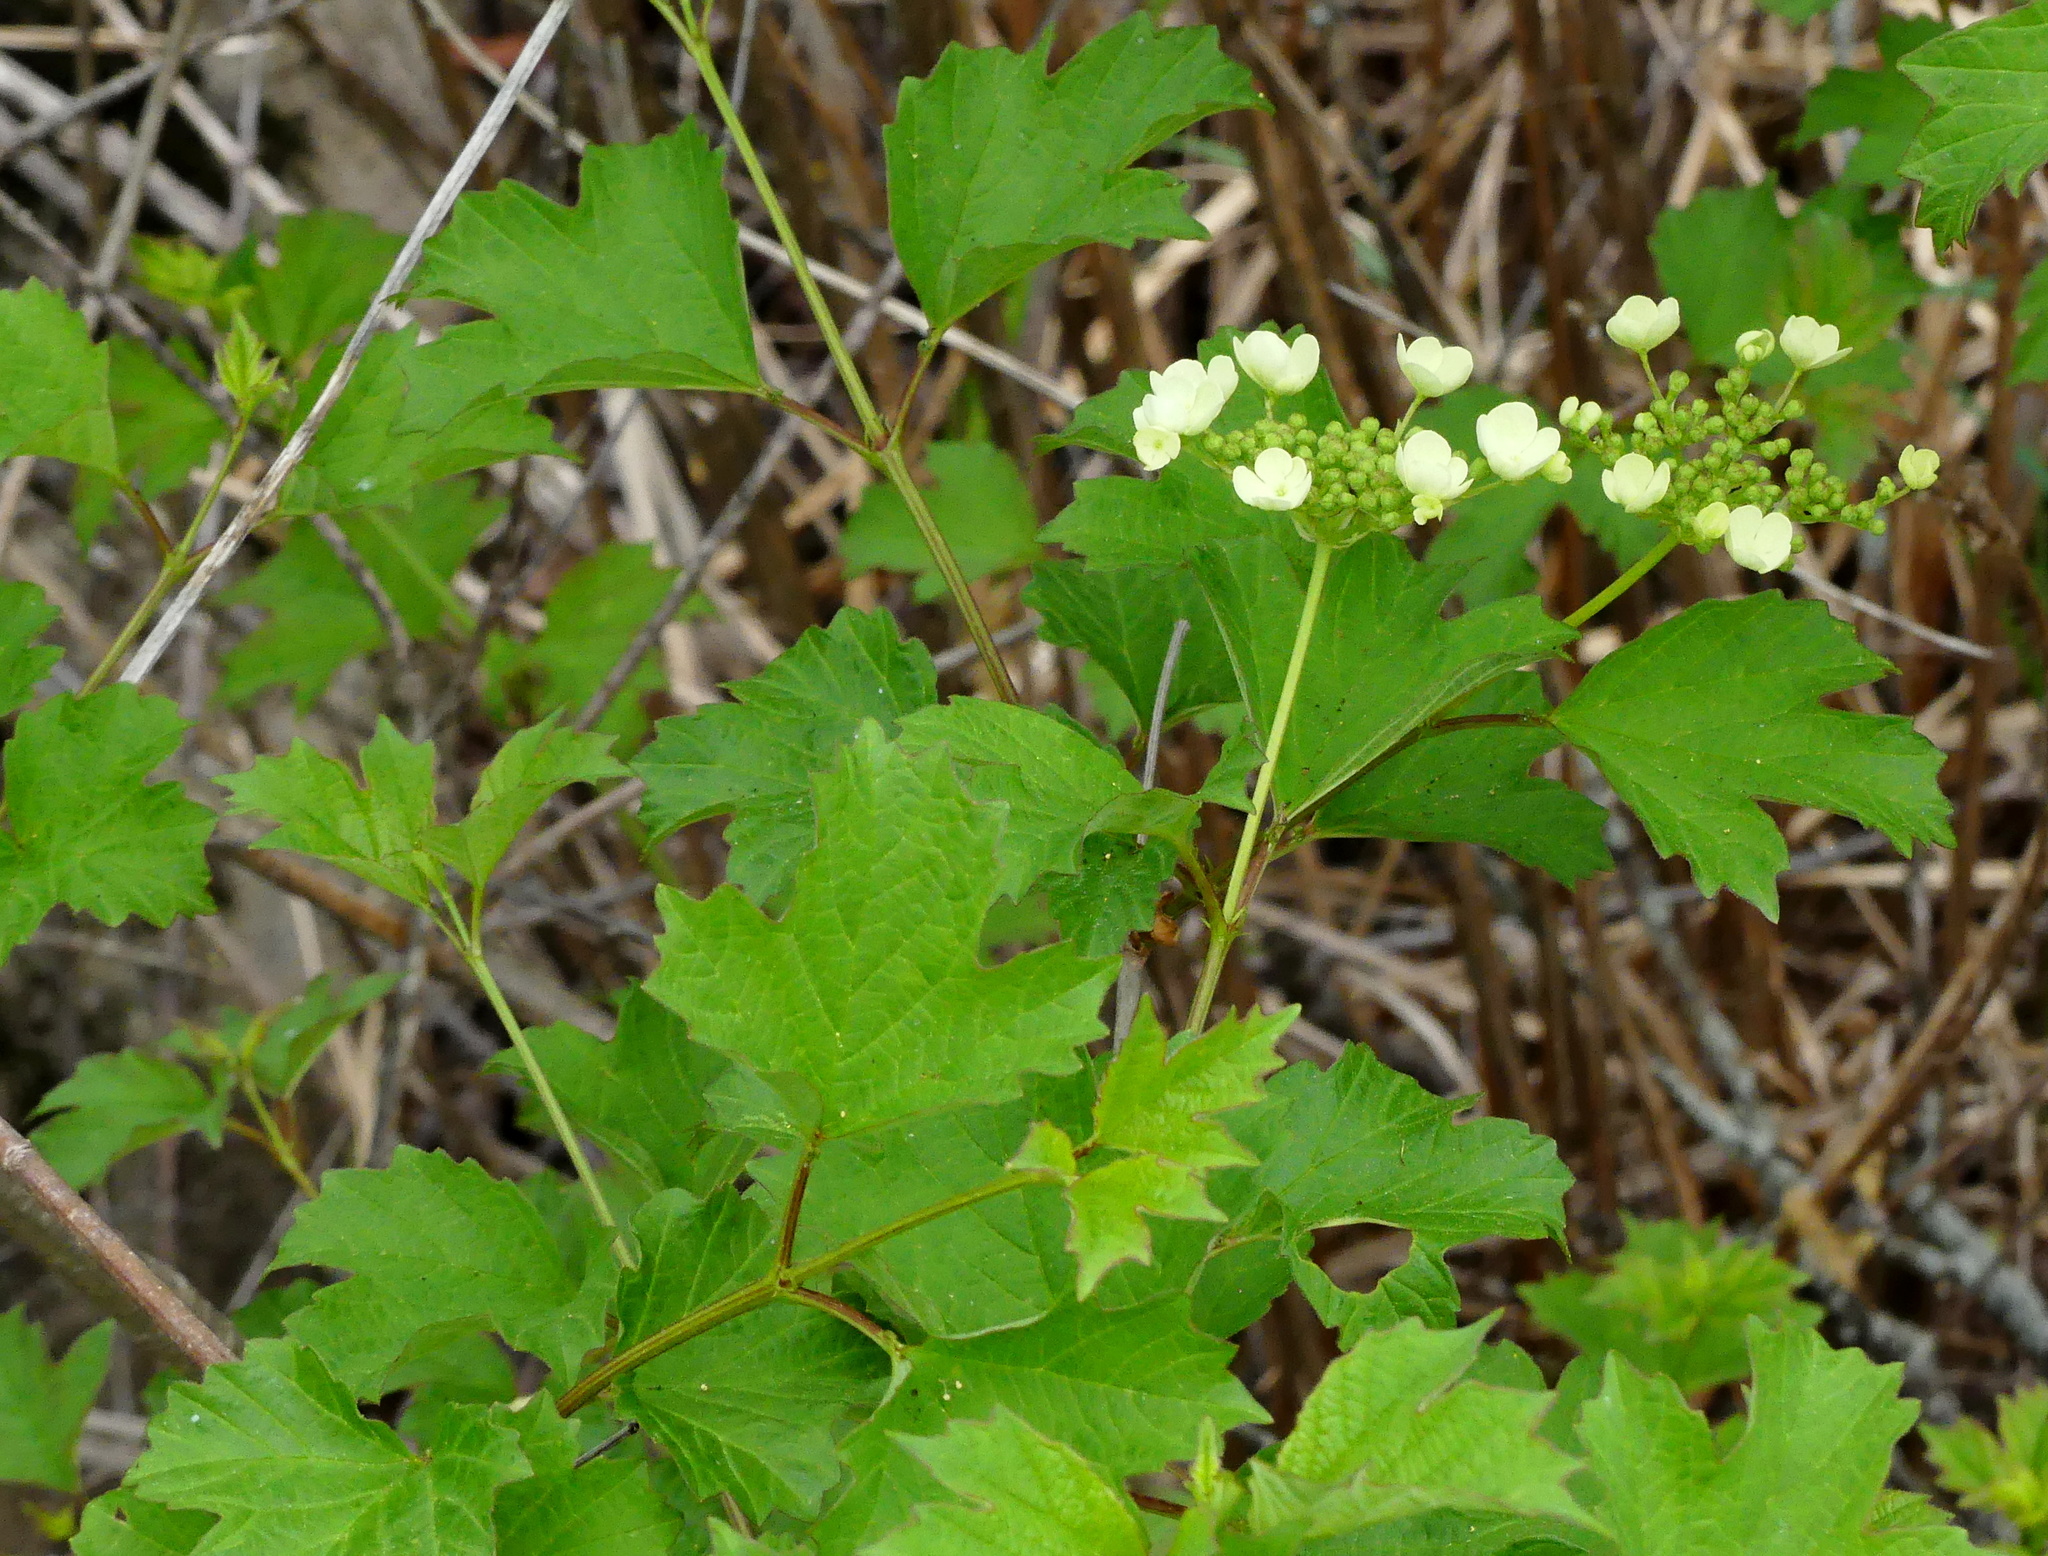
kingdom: Plantae
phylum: Tracheophyta
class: Magnoliopsida
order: Dipsacales
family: Viburnaceae
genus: Viburnum
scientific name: Viburnum opulus
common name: Guelder-rose
